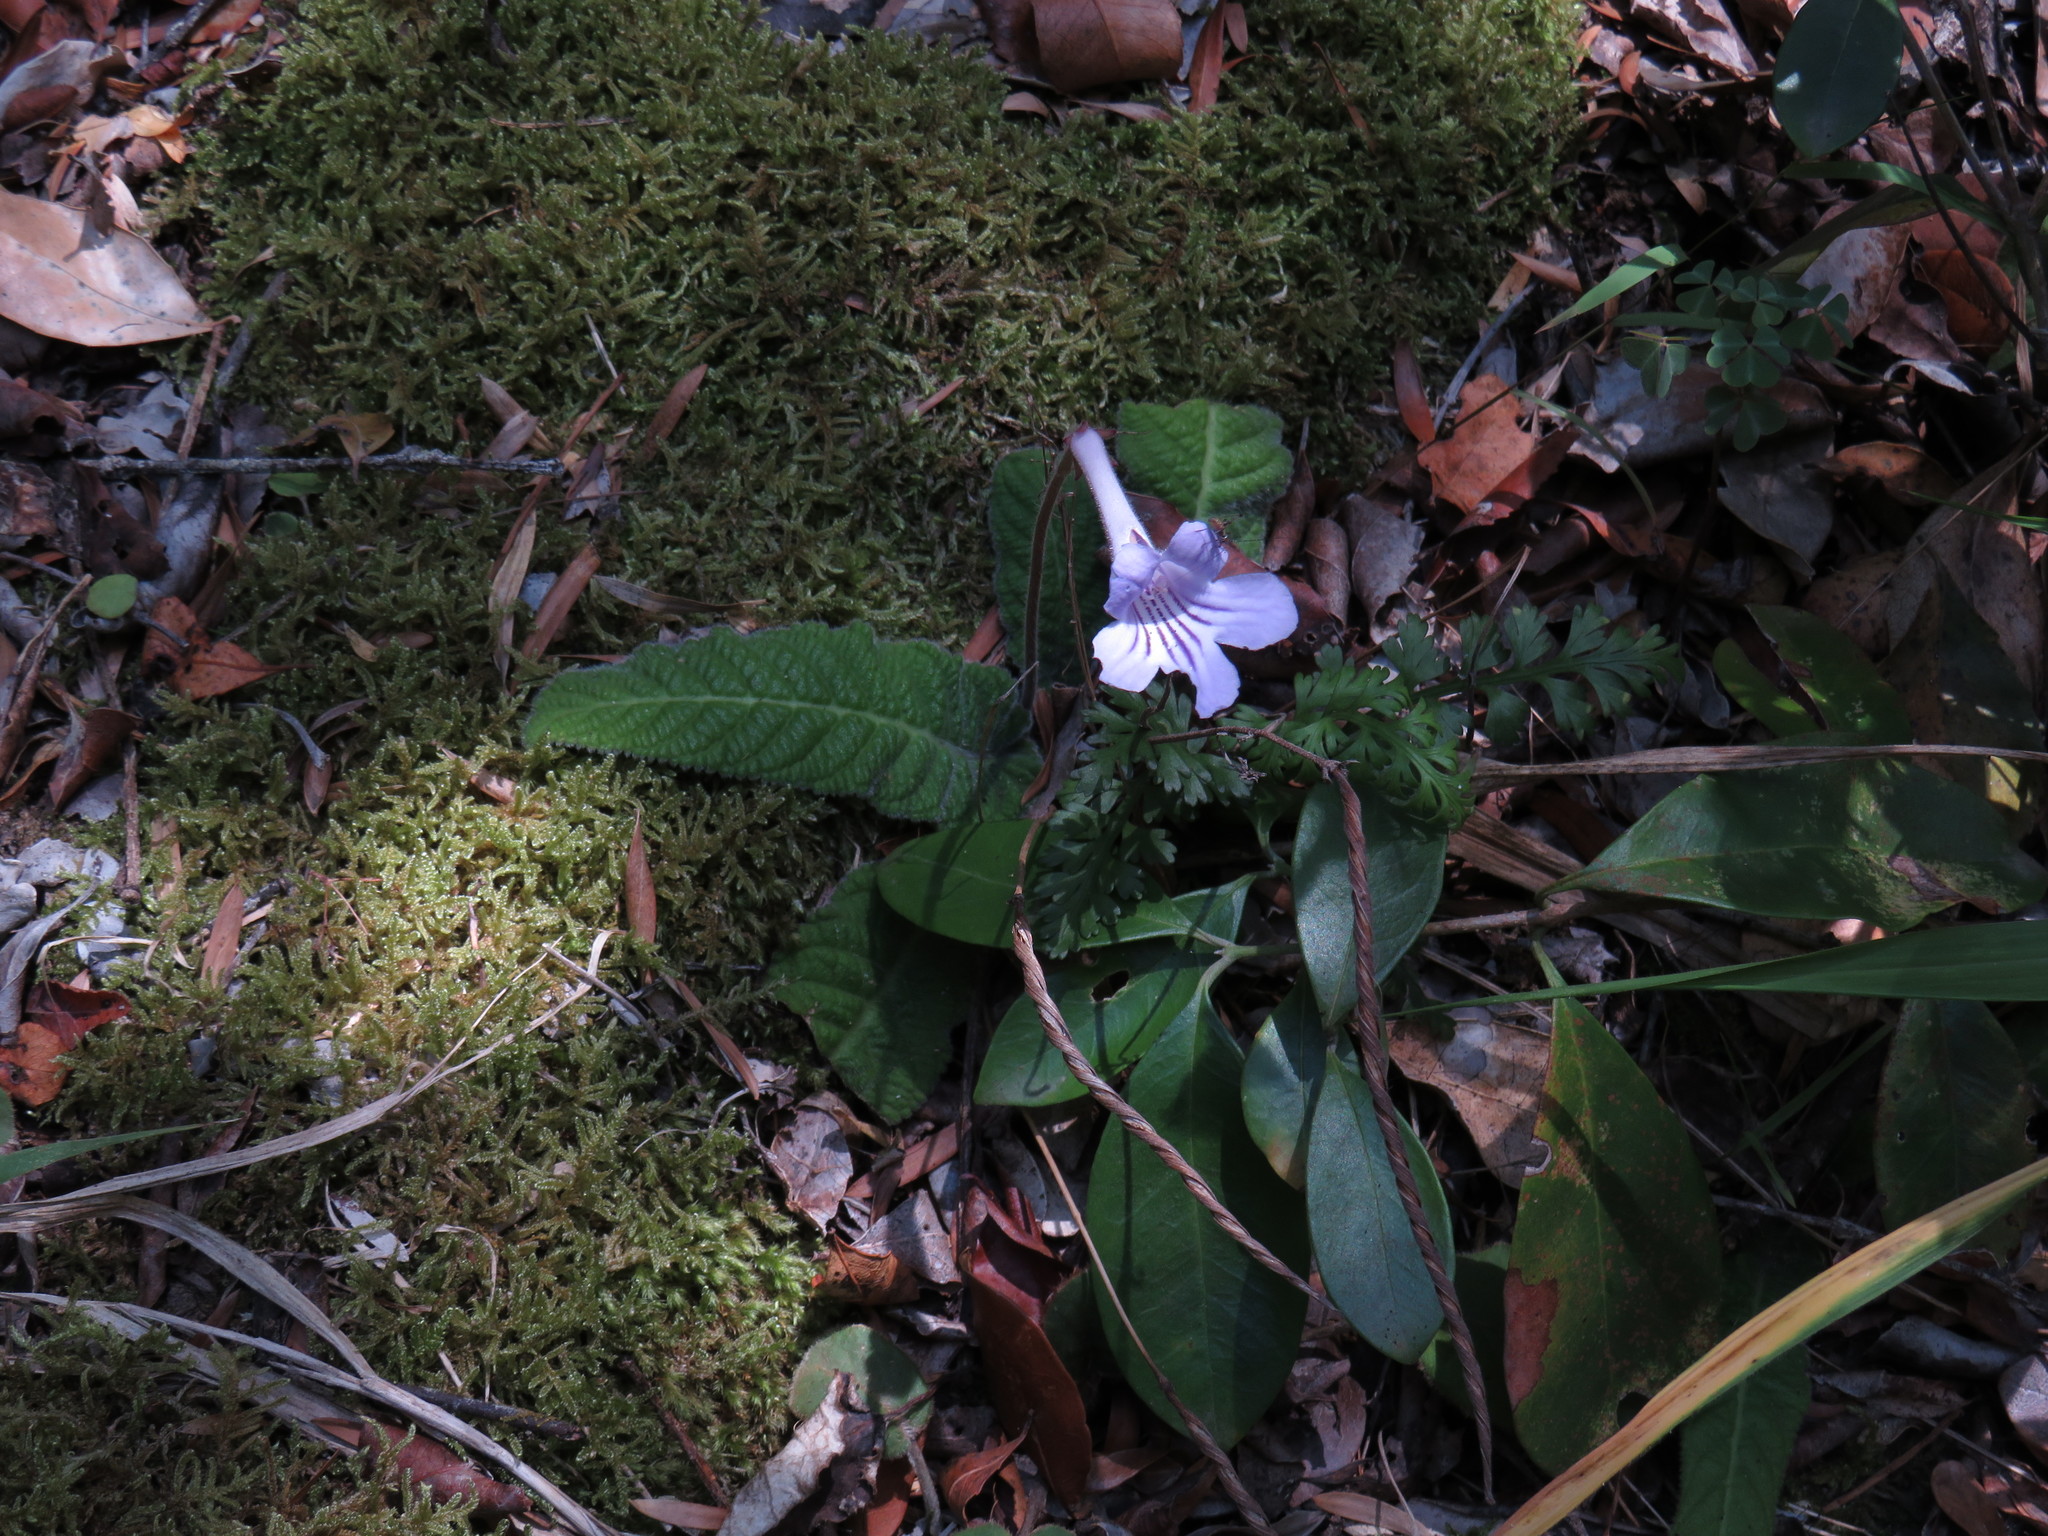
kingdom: Plantae
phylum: Tracheophyta
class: Magnoliopsida
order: Lamiales
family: Gesneriaceae
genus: Streptocarpus
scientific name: Streptocarpus rexii
